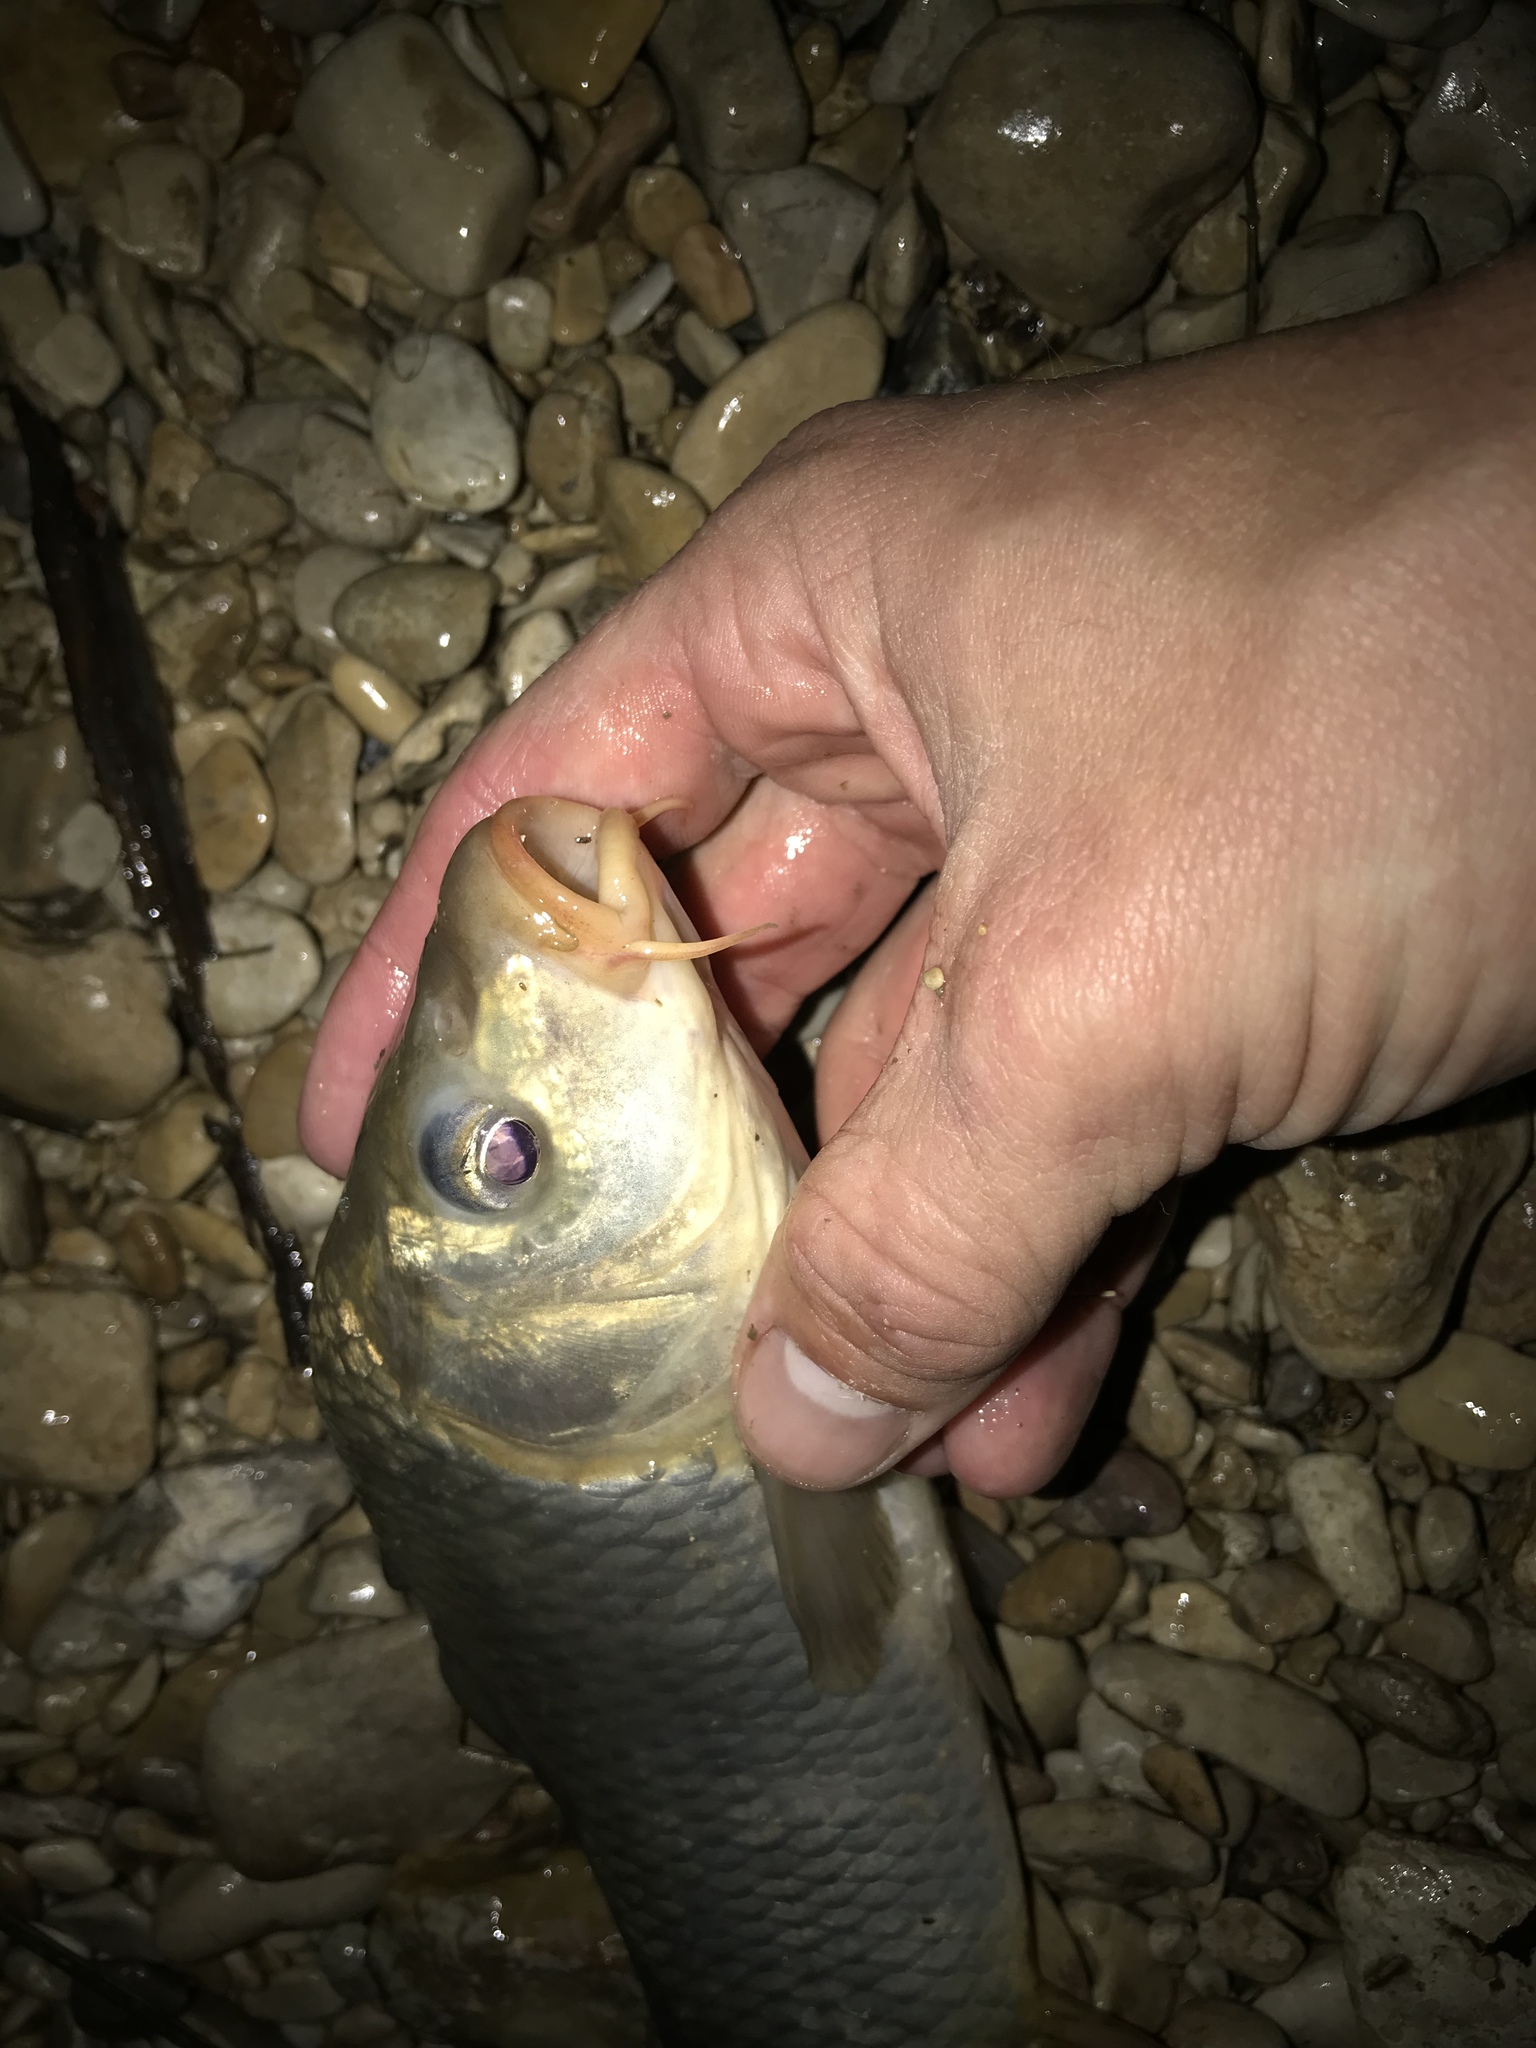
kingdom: Animalia
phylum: Chordata
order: Cypriniformes
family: Cyprinidae
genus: Cyprinus
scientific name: Cyprinus carpio
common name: Common carp
